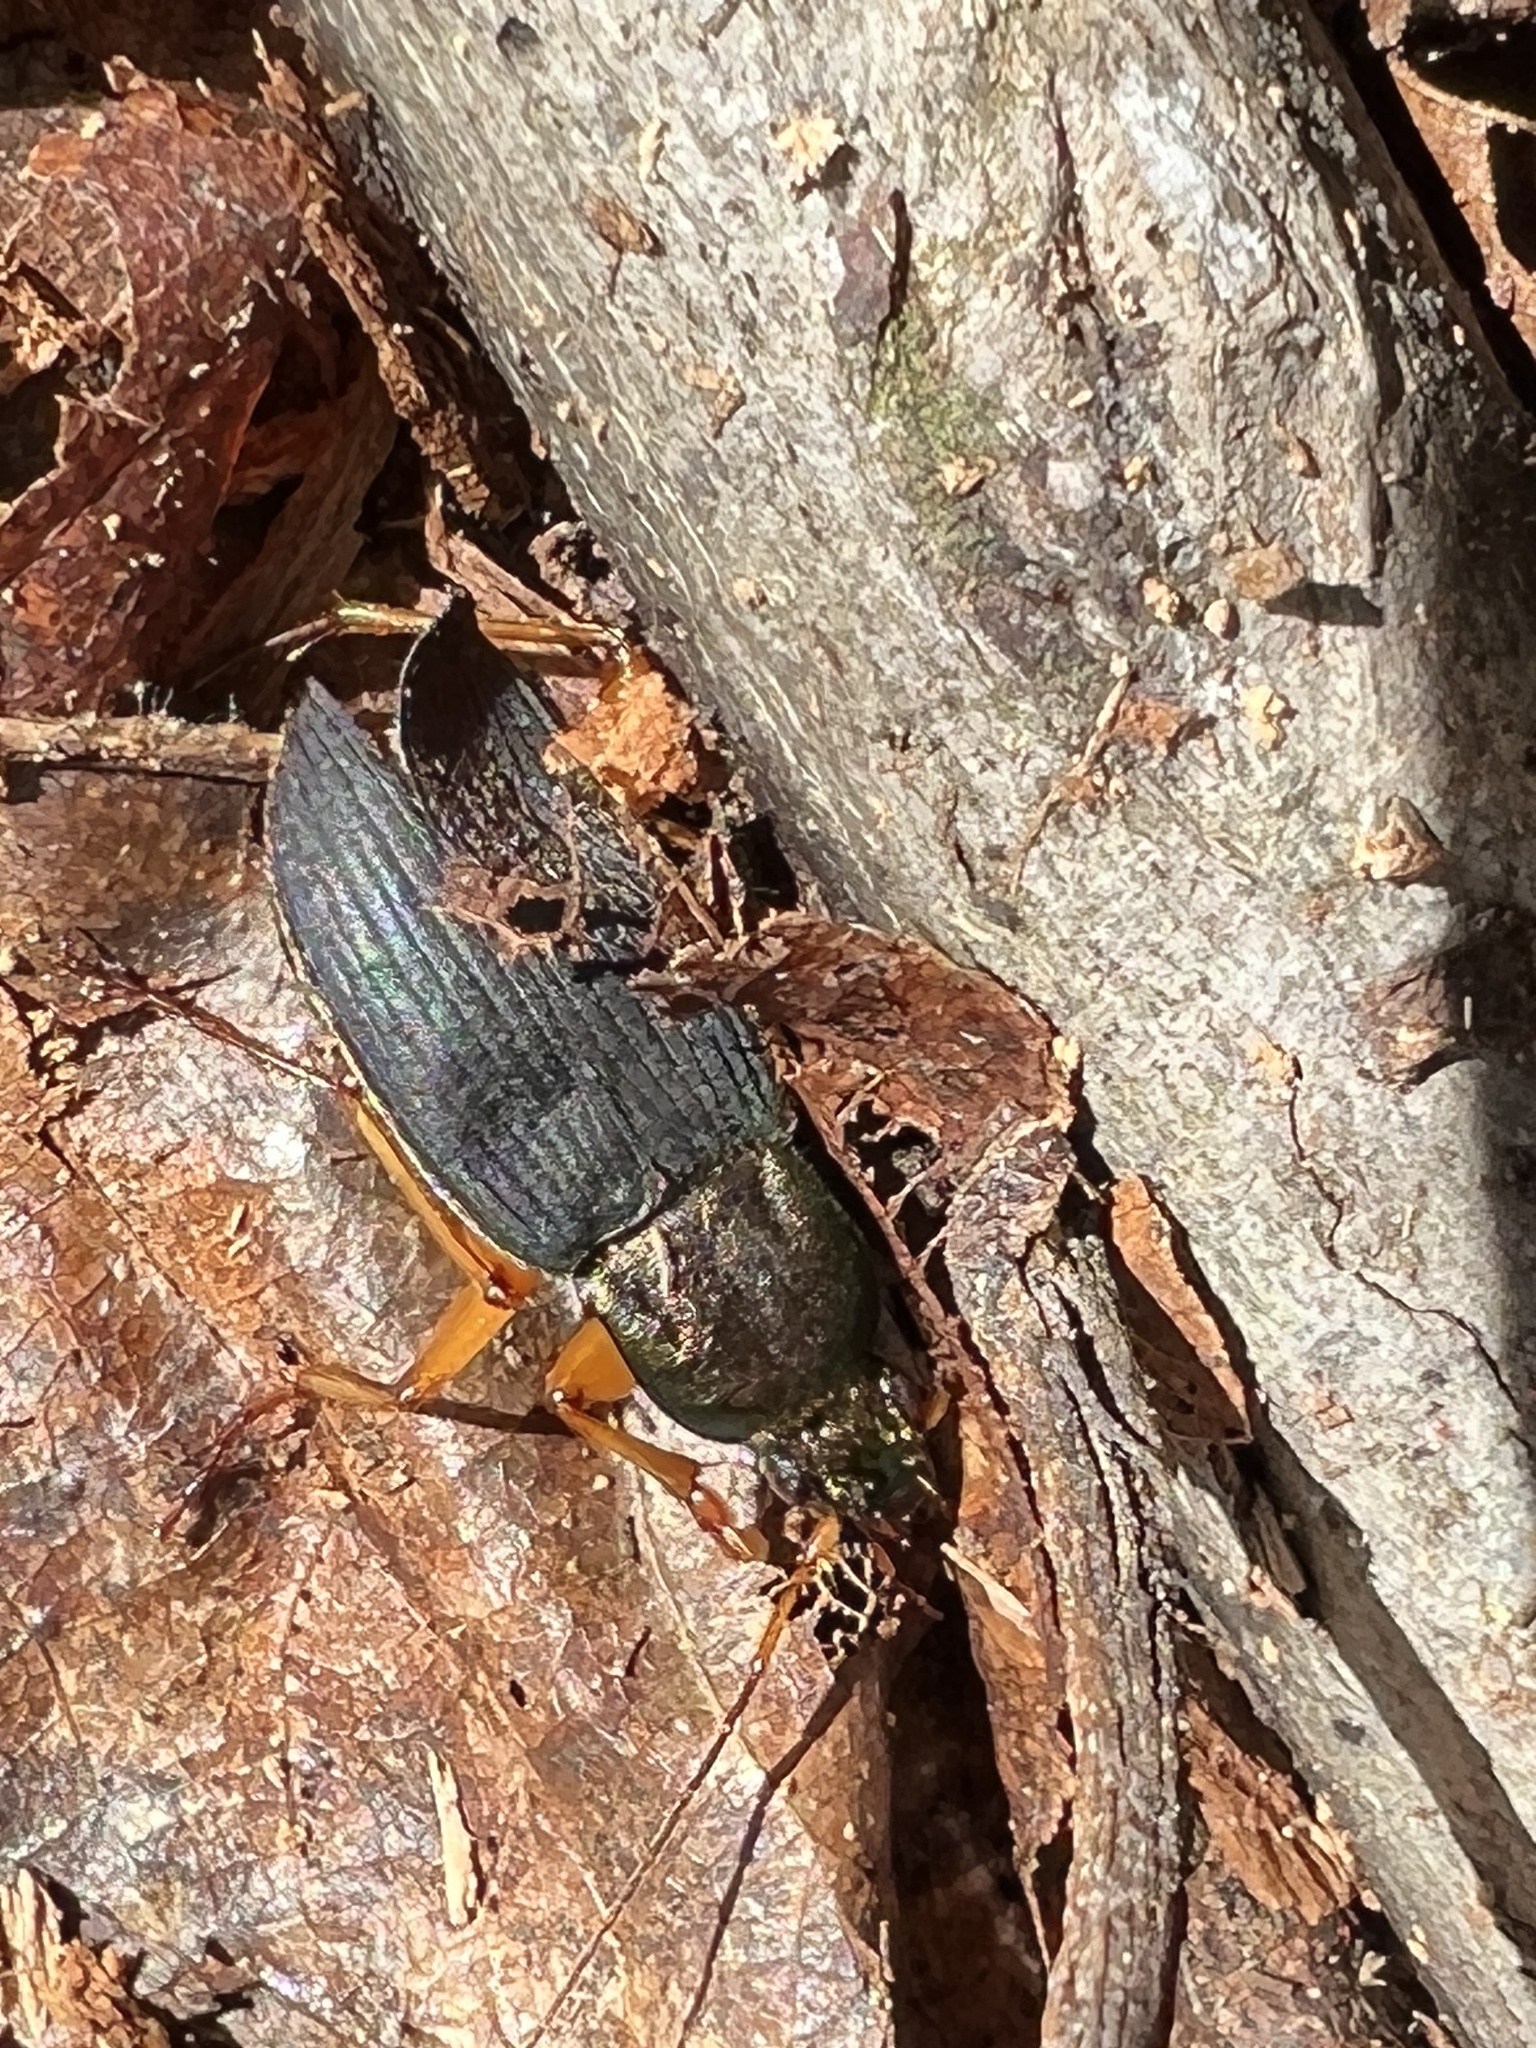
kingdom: Animalia
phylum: Arthropoda
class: Insecta
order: Coleoptera
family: Carabidae
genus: Chlaenius
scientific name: Chlaenius aestivus
